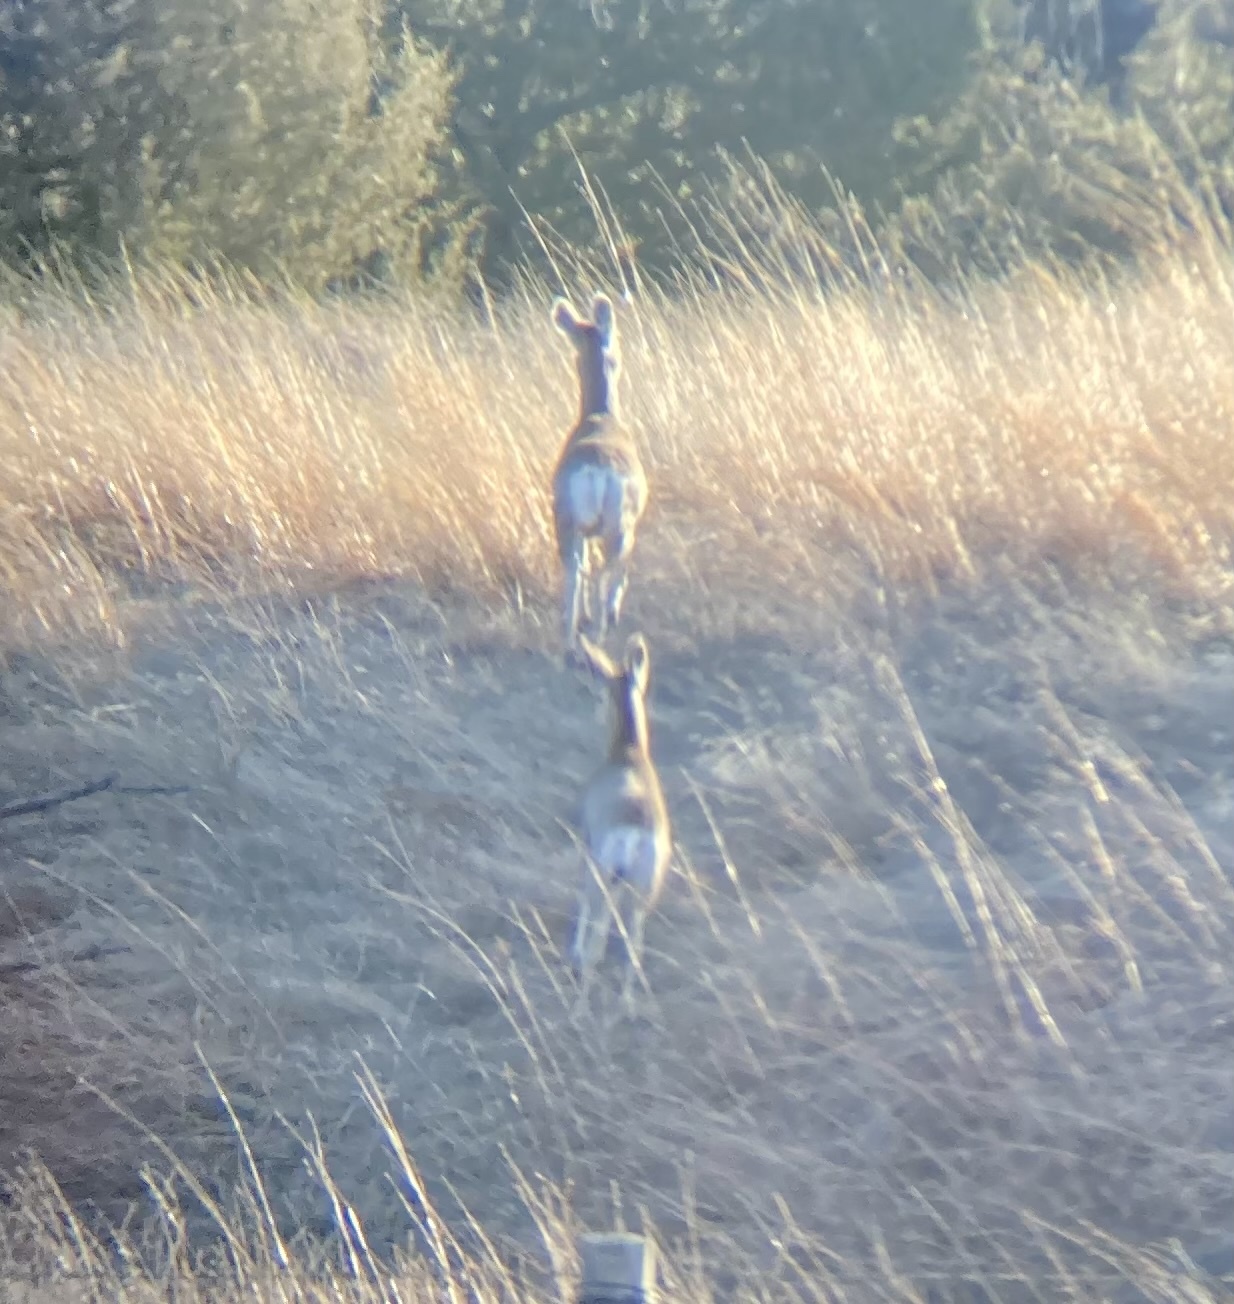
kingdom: Animalia
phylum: Chordata
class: Mammalia
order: Artiodactyla
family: Cervidae
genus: Odocoileus
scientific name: Odocoileus hemionus
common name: Mule deer
